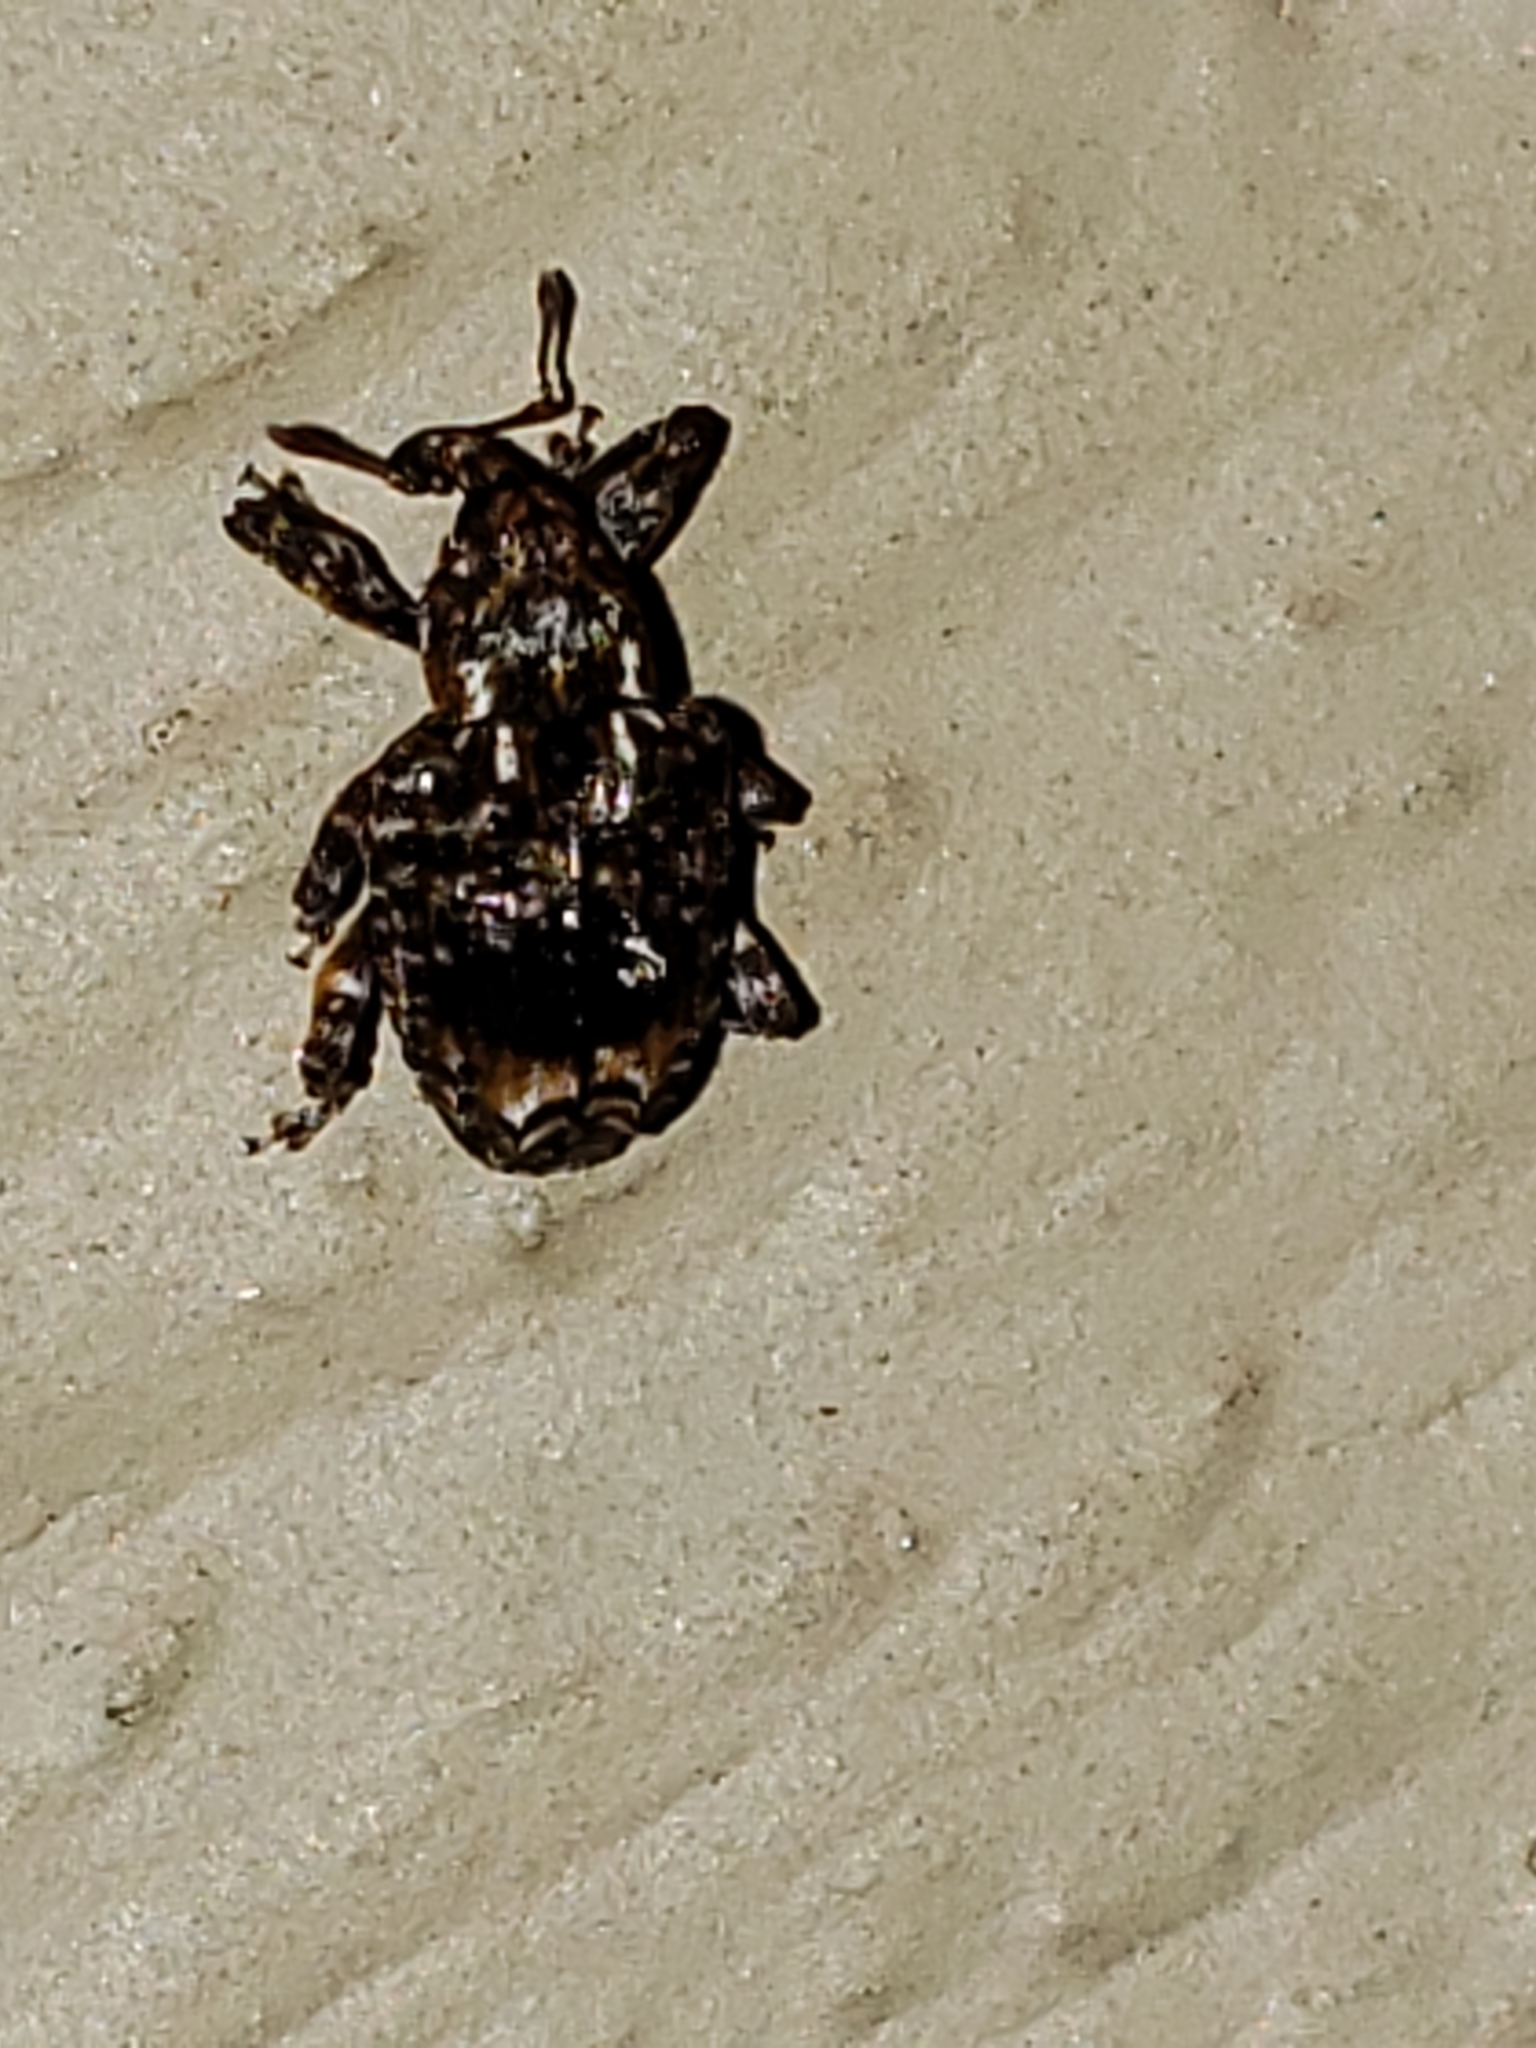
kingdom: Animalia
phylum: Arthropoda
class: Insecta
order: Coleoptera
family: Curculionidae
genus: Conotrachelus
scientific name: Conotrachelus nenuphar
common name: Plum curculio
